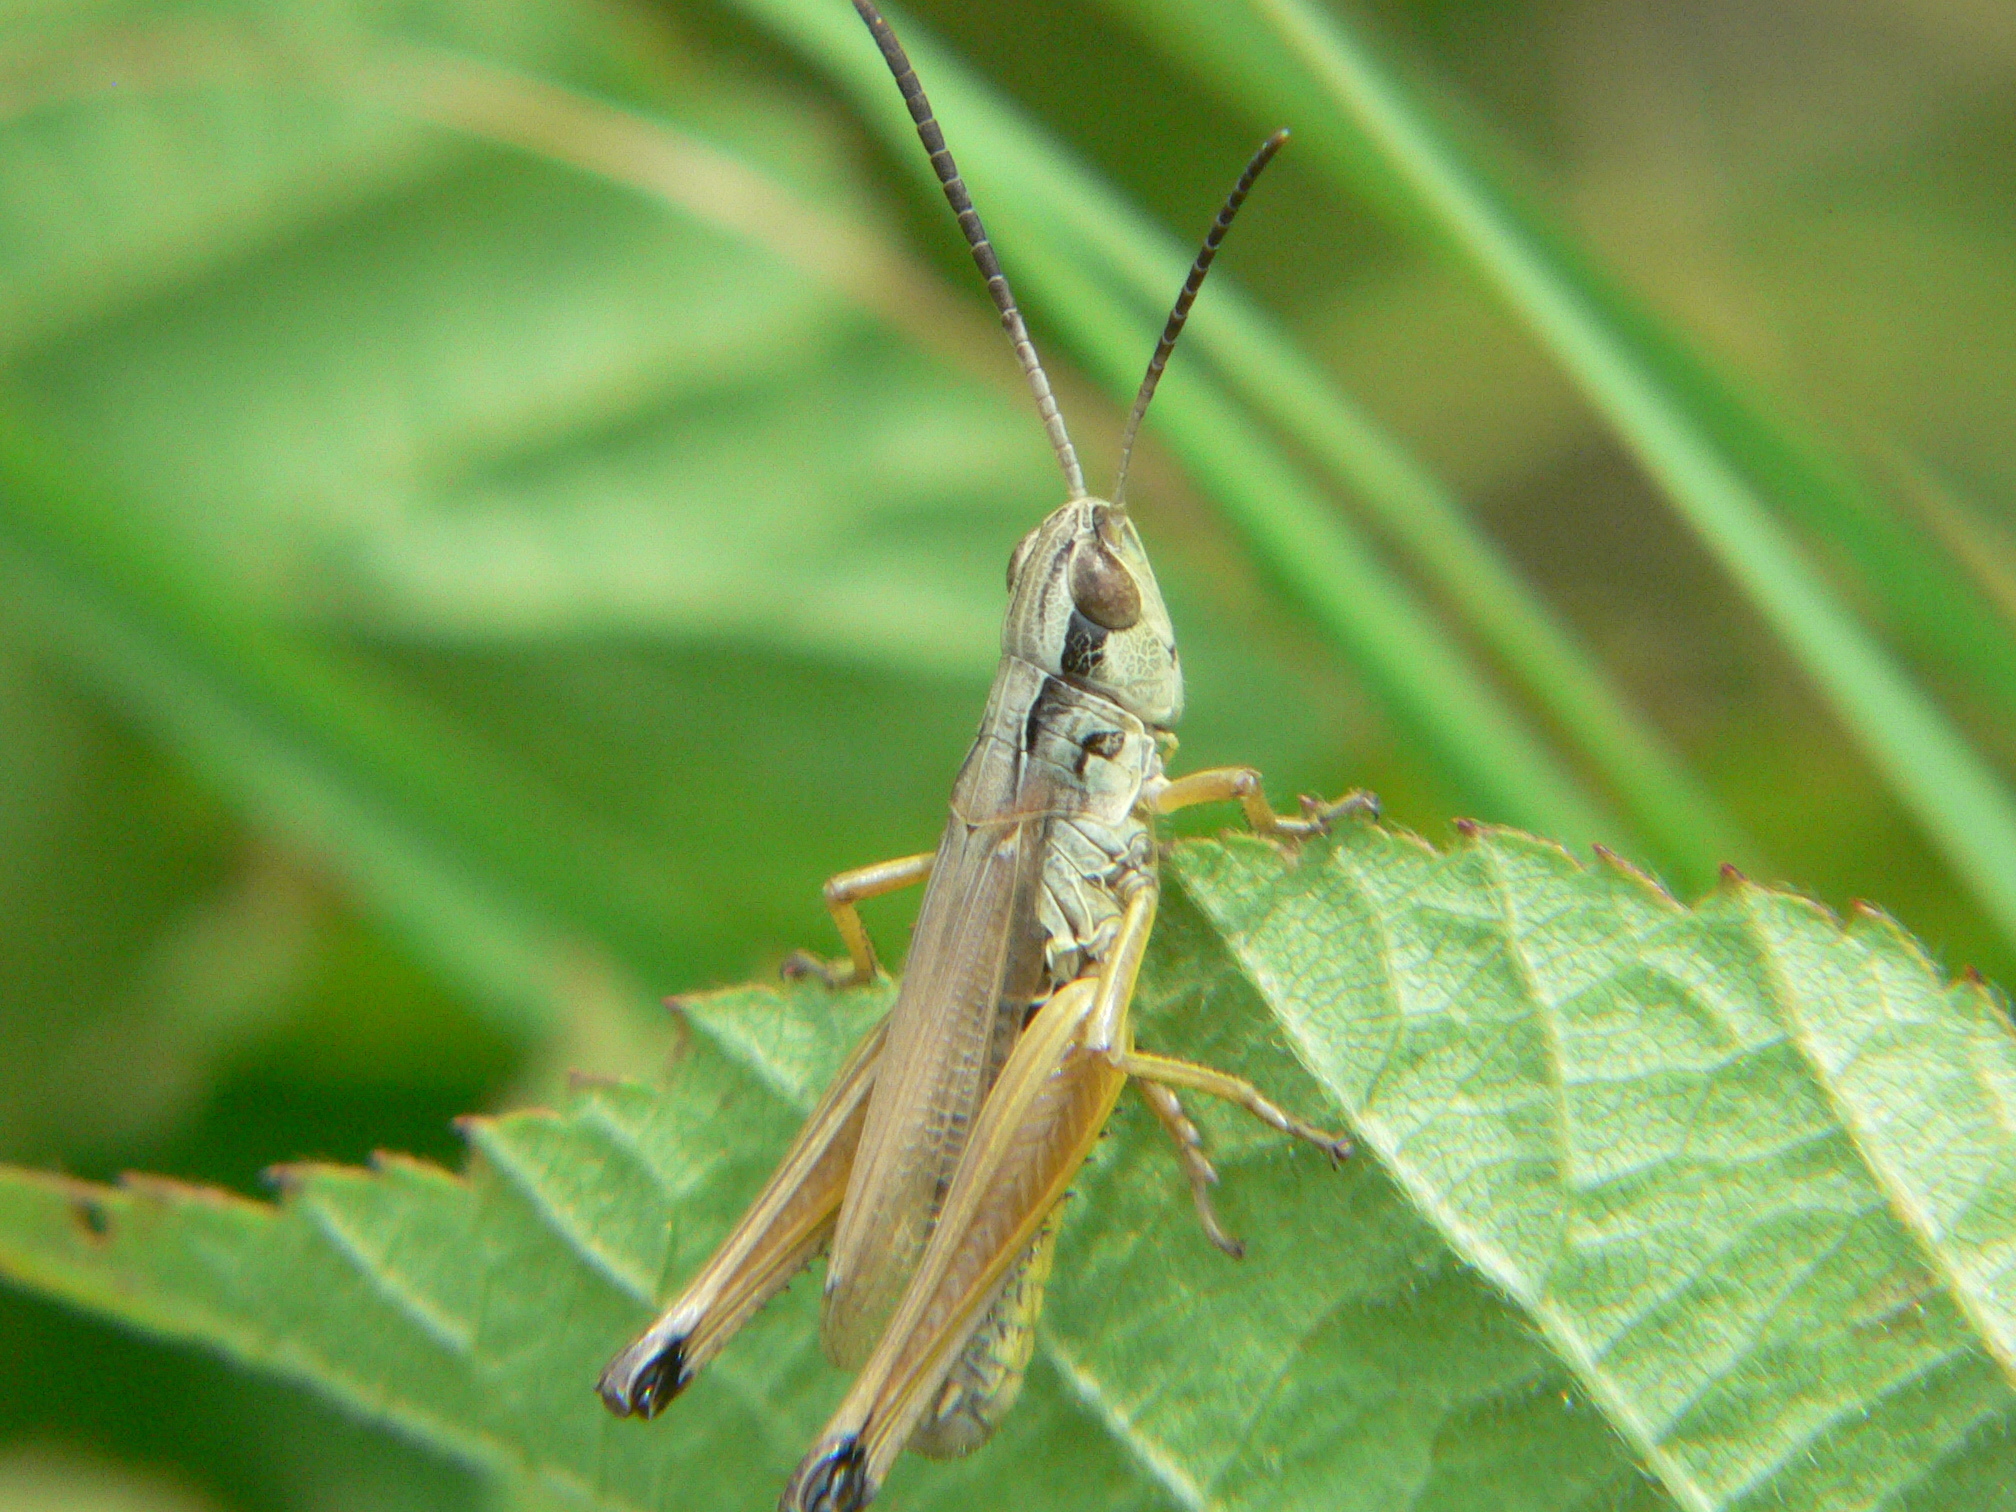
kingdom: Animalia
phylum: Arthropoda
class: Insecta
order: Orthoptera
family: Acrididae
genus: Pseudochorthippus
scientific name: Pseudochorthippus curtipennis
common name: Marsh meadow grasshopper
